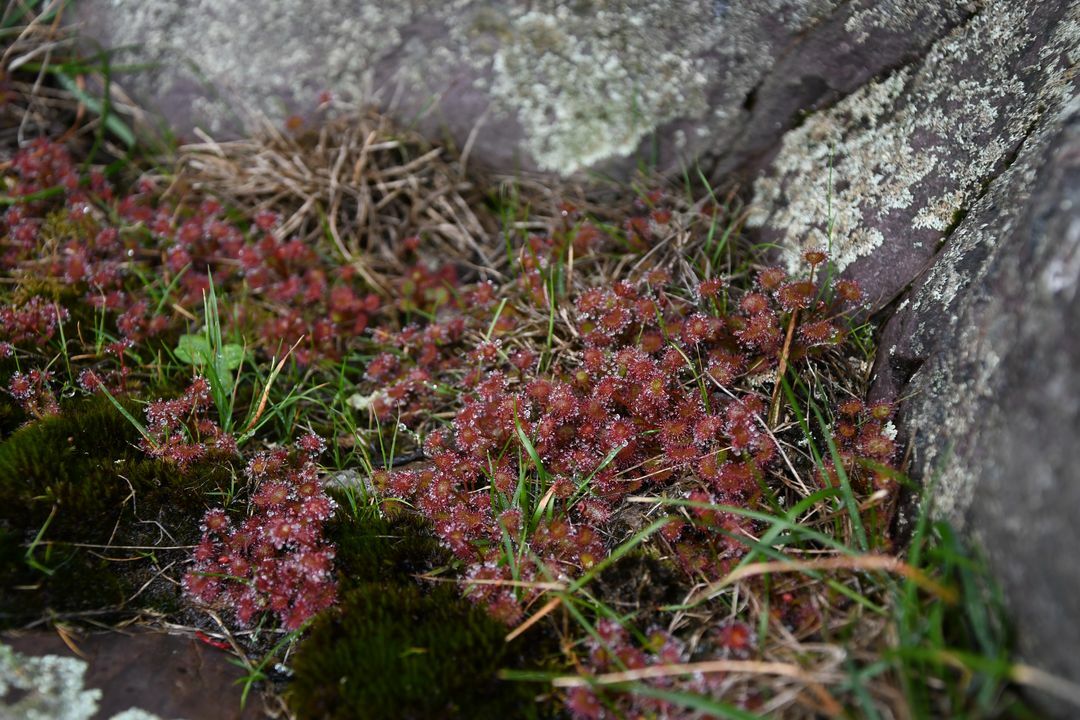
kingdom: Plantae
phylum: Tracheophyta
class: Magnoliopsida
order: Caryophyllales
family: Droseraceae
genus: Drosera
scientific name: Drosera monticola
